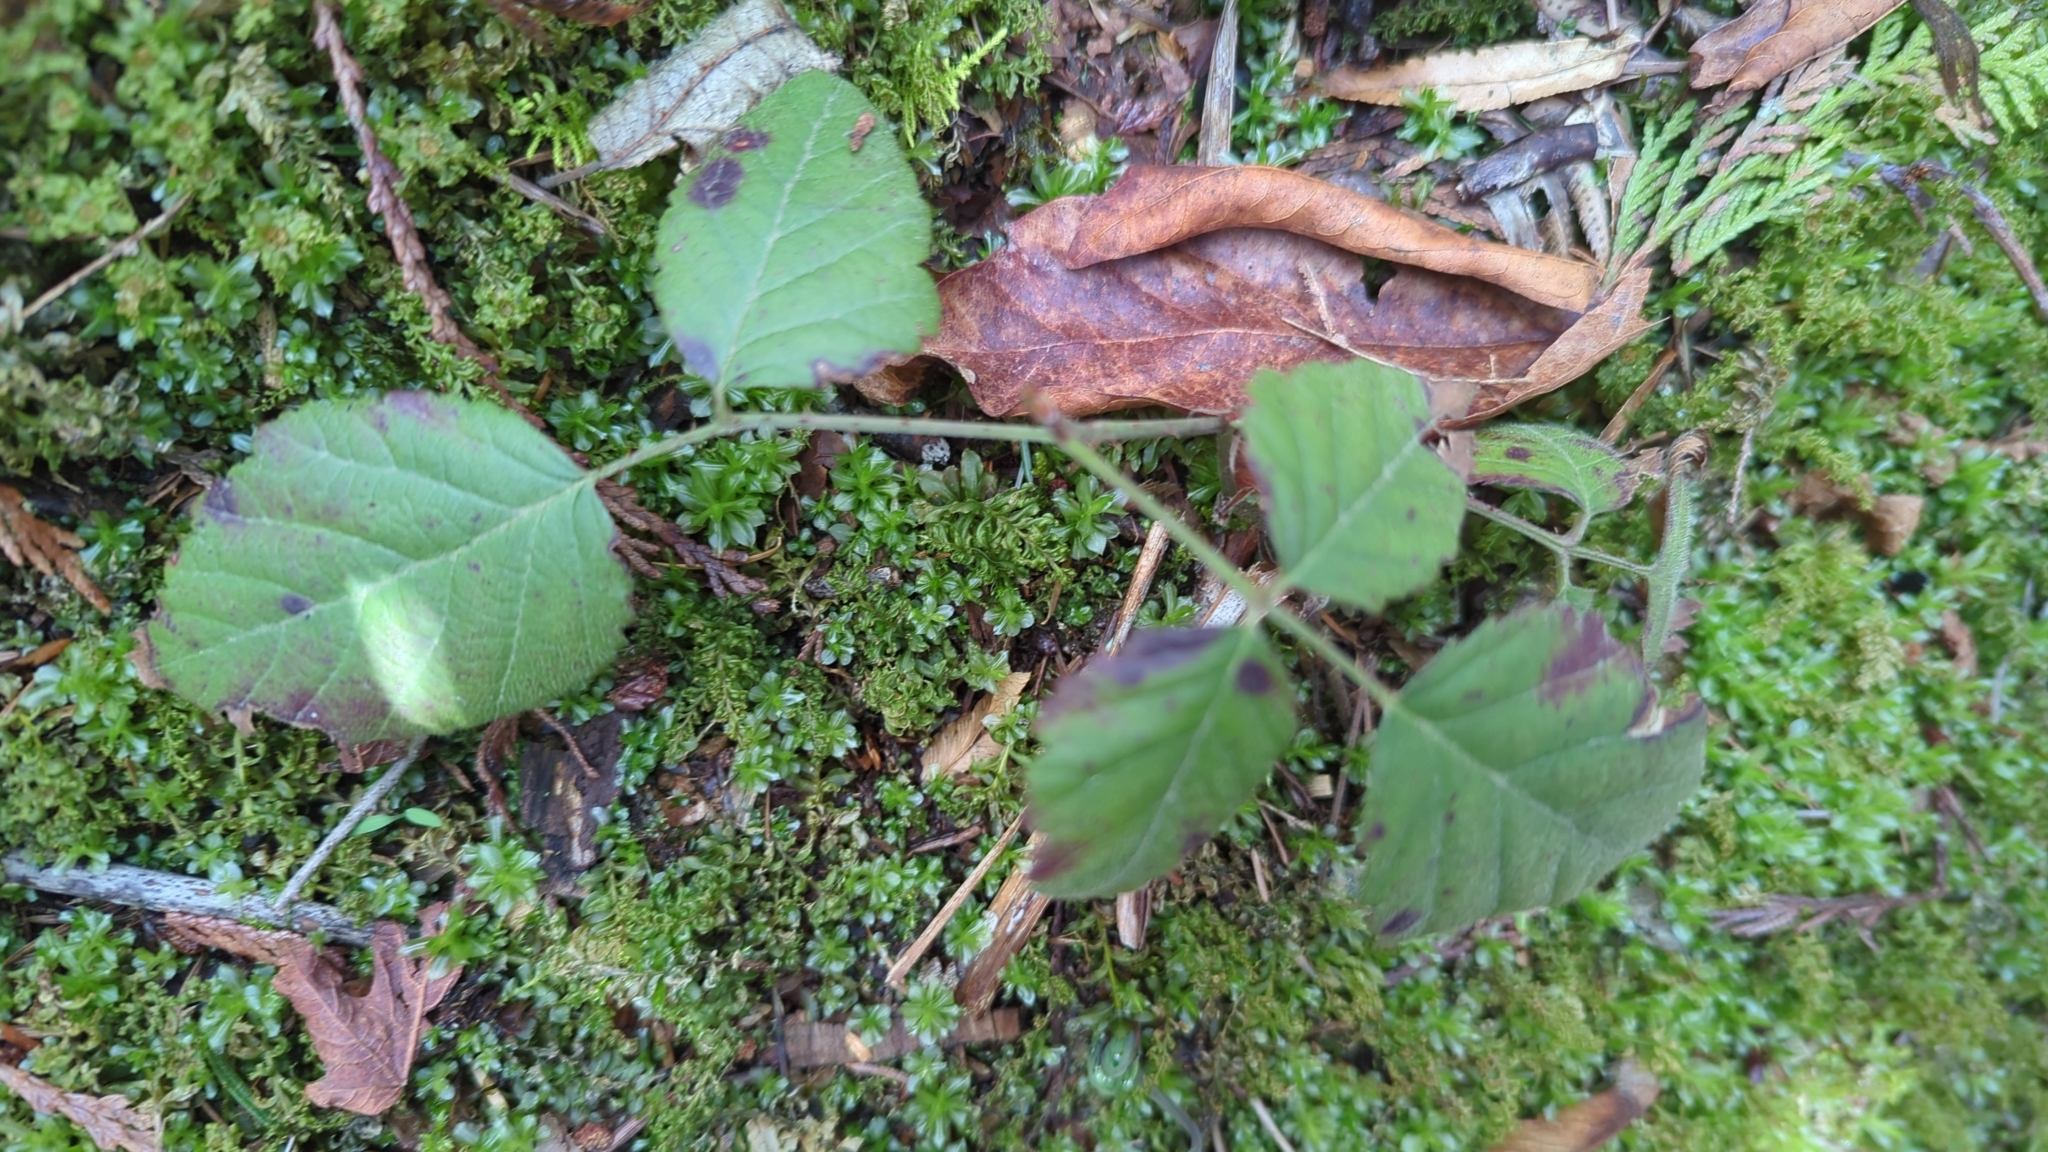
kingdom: Plantae
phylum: Tracheophyta
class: Magnoliopsida
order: Rosales
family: Rosaceae
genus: Rubus
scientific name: Rubus ursinus
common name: Pacific blackberry
